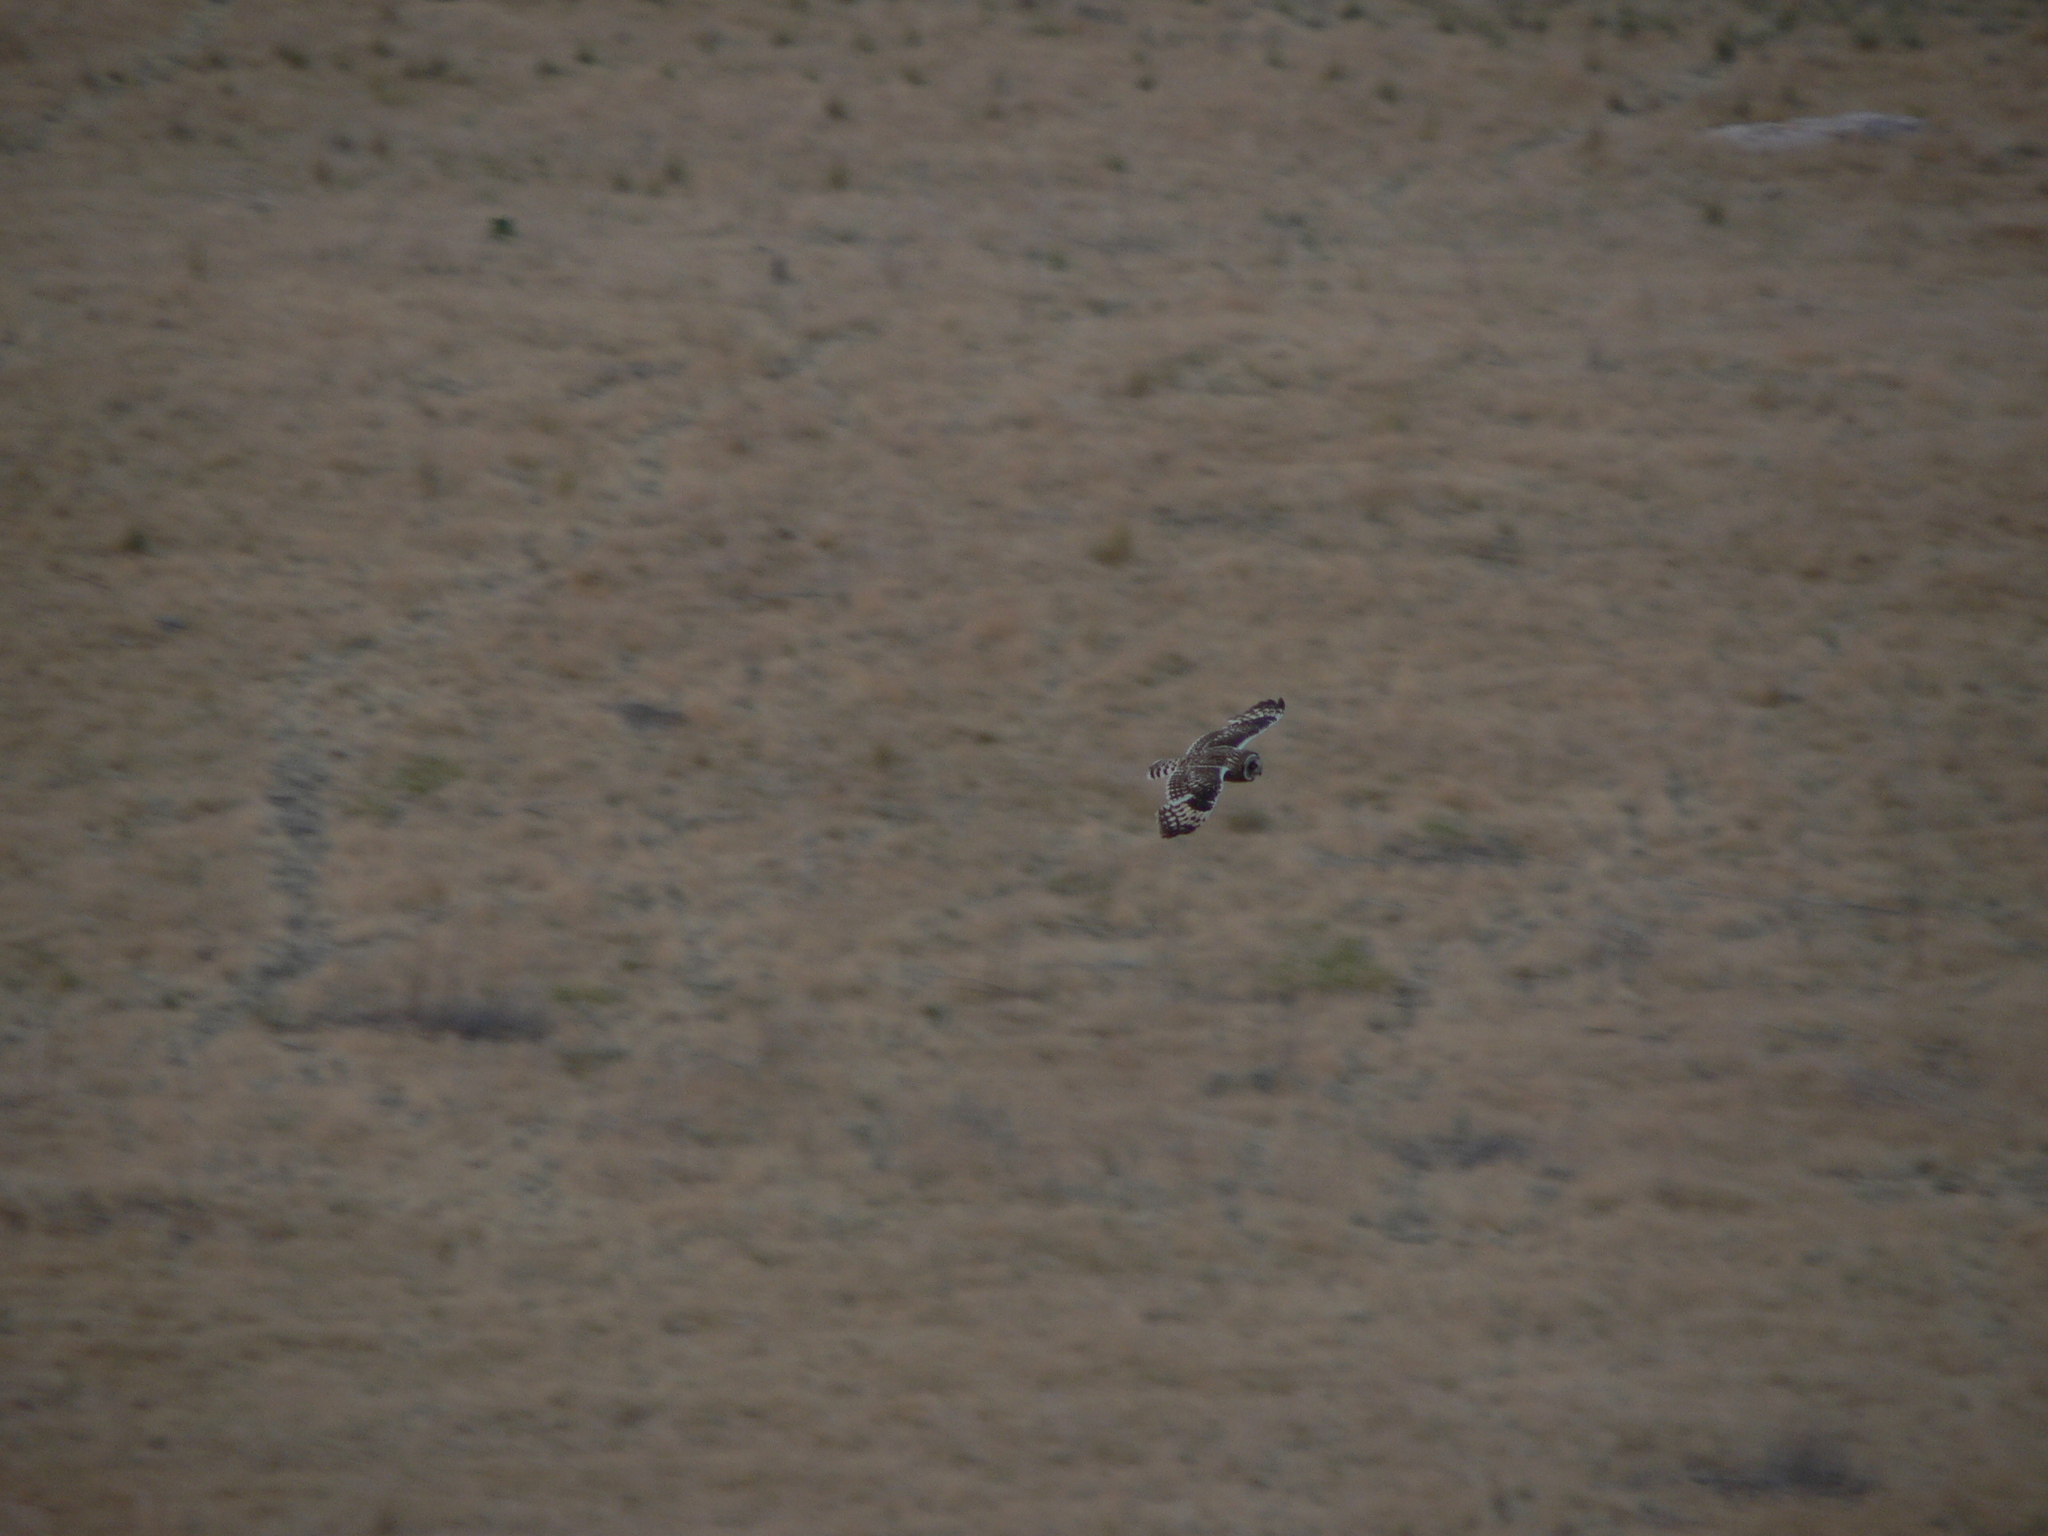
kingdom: Animalia
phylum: Chordata
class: Aves
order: Strigiformes
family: Strigidae
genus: Asio
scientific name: Asio flammeus
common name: Short-eared owl
